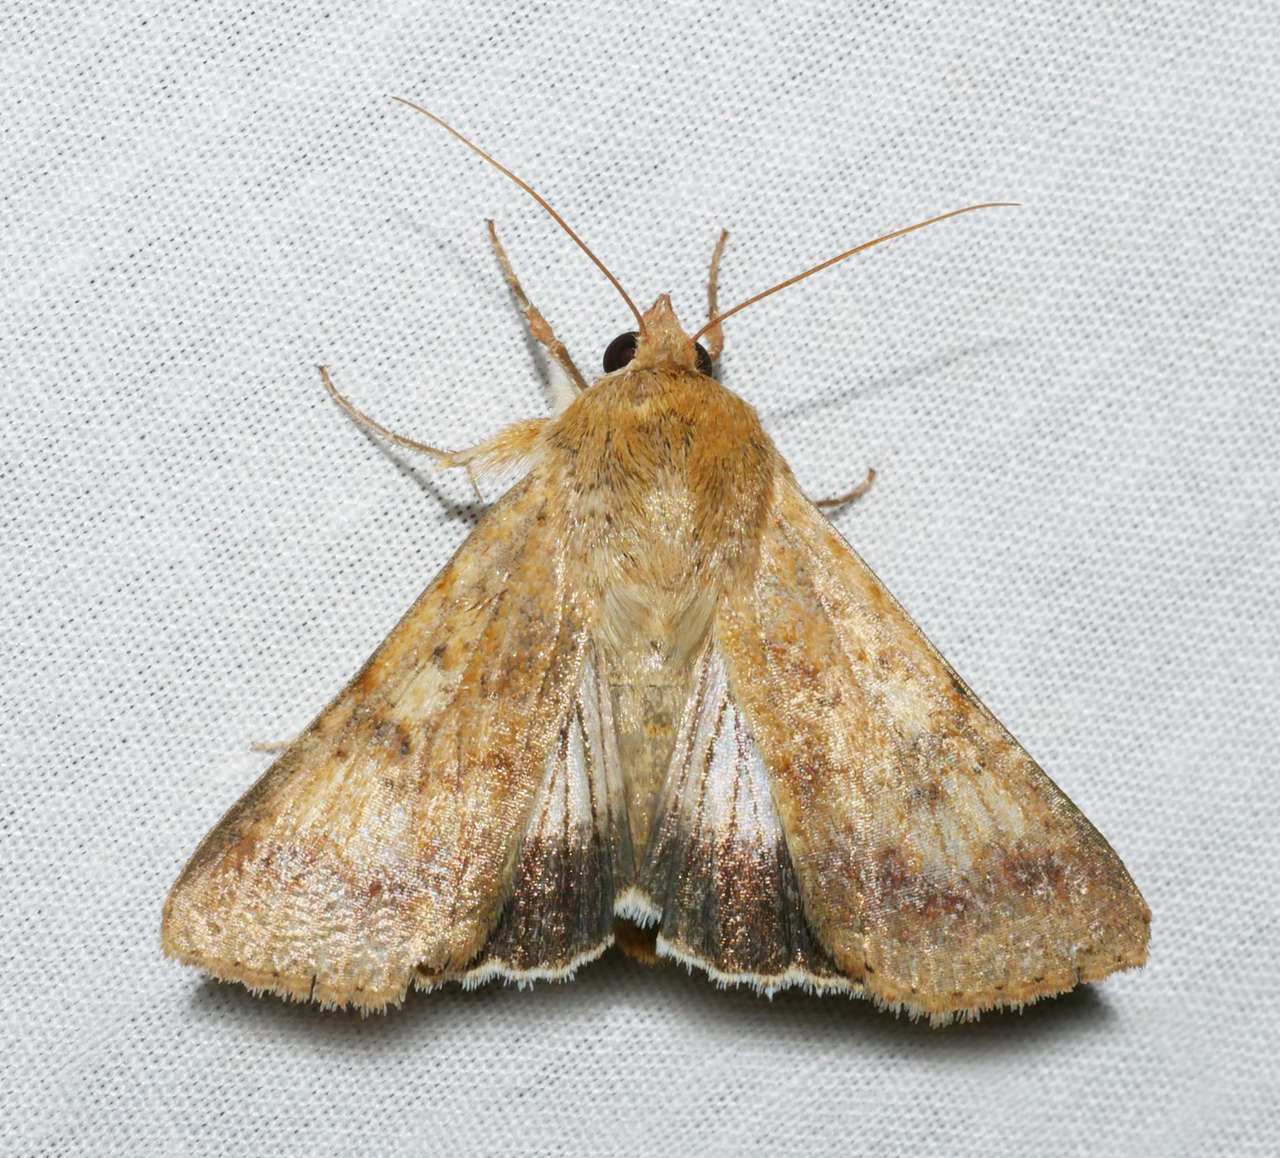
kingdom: Animalia
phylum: Arthropoda
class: Insecta
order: Lepidoptera
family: Noctuidae
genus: Helicoverpa
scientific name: Helicoverpa punctigera
